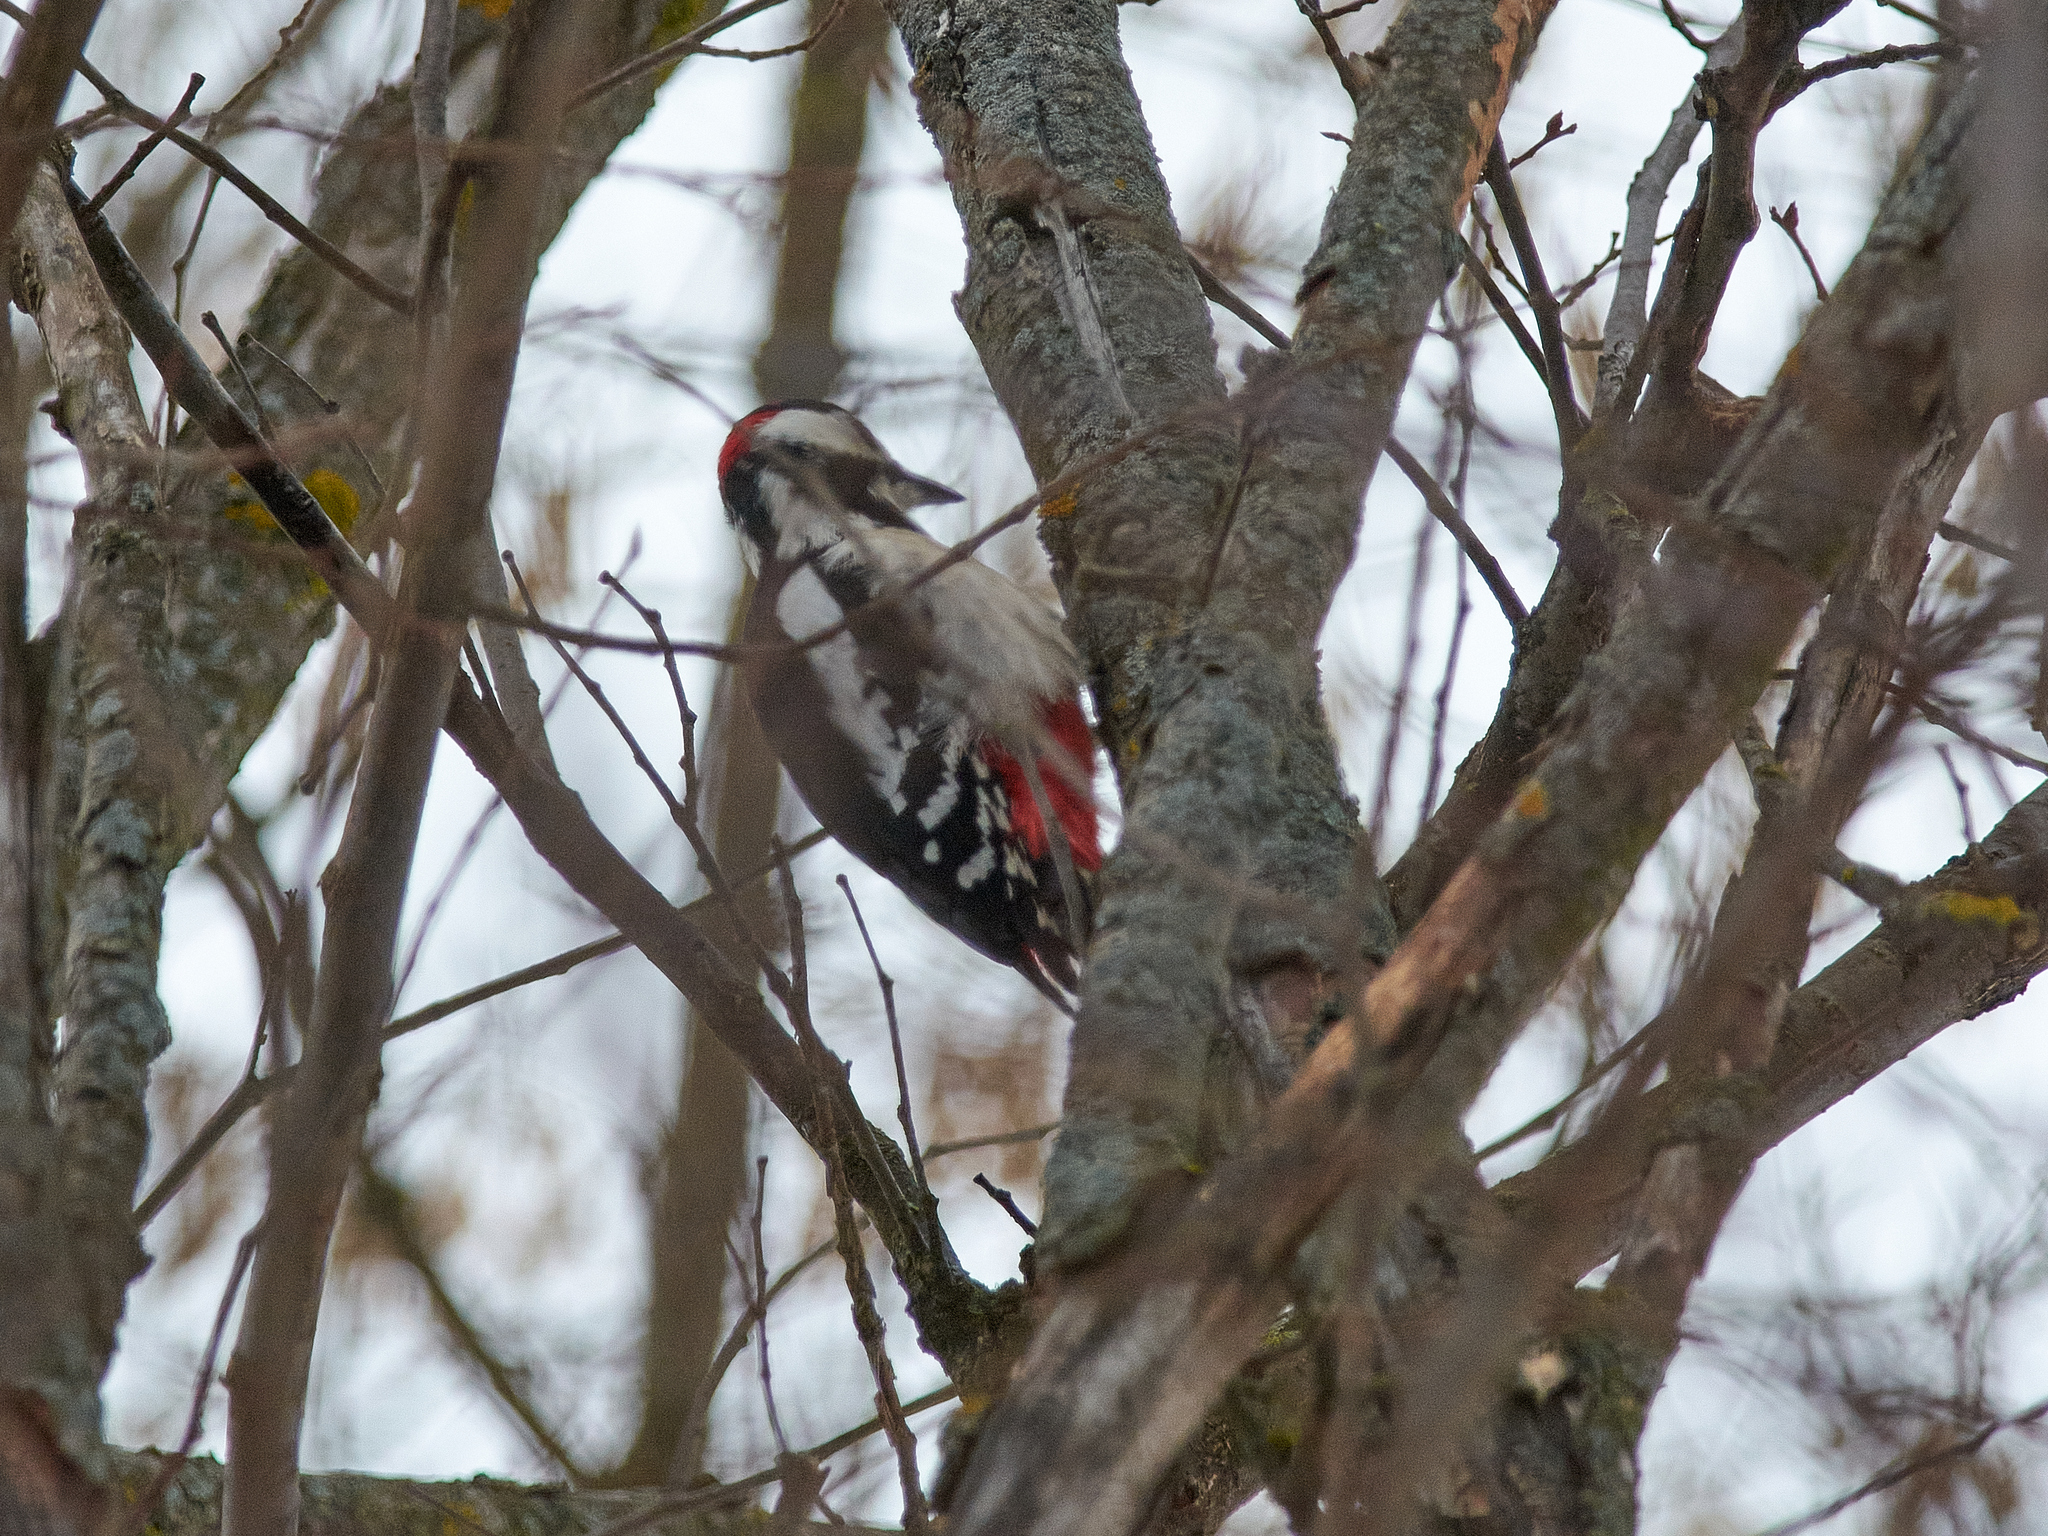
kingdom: Animalia
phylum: Chordata
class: Aves
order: Piciformes
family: Picidae
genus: Dendrocopos
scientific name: Dendrocopos major
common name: Great spotted woodpecker
